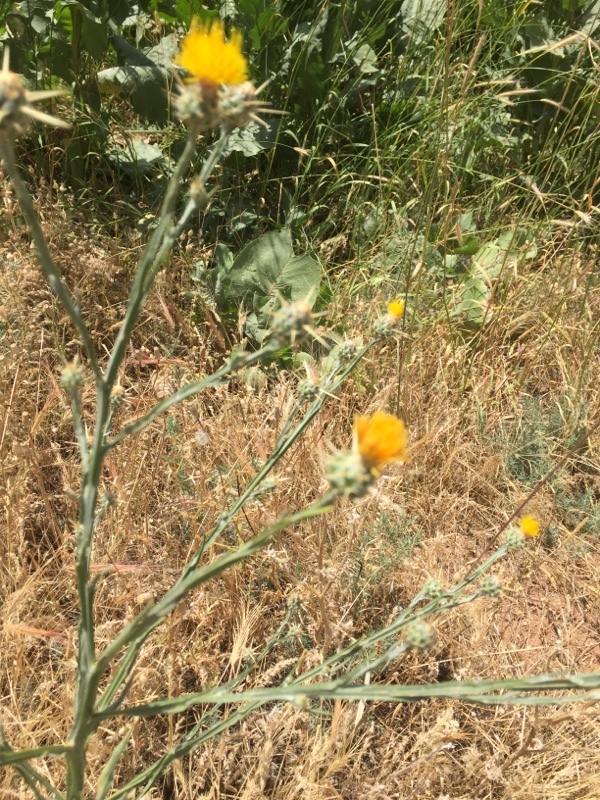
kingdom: Plantae
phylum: Tracheophyta
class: Magnoliopsida
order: Asterales
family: Asteraceae
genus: Centaurea
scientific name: Centaurea melitensis
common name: Maltese star-thistle
